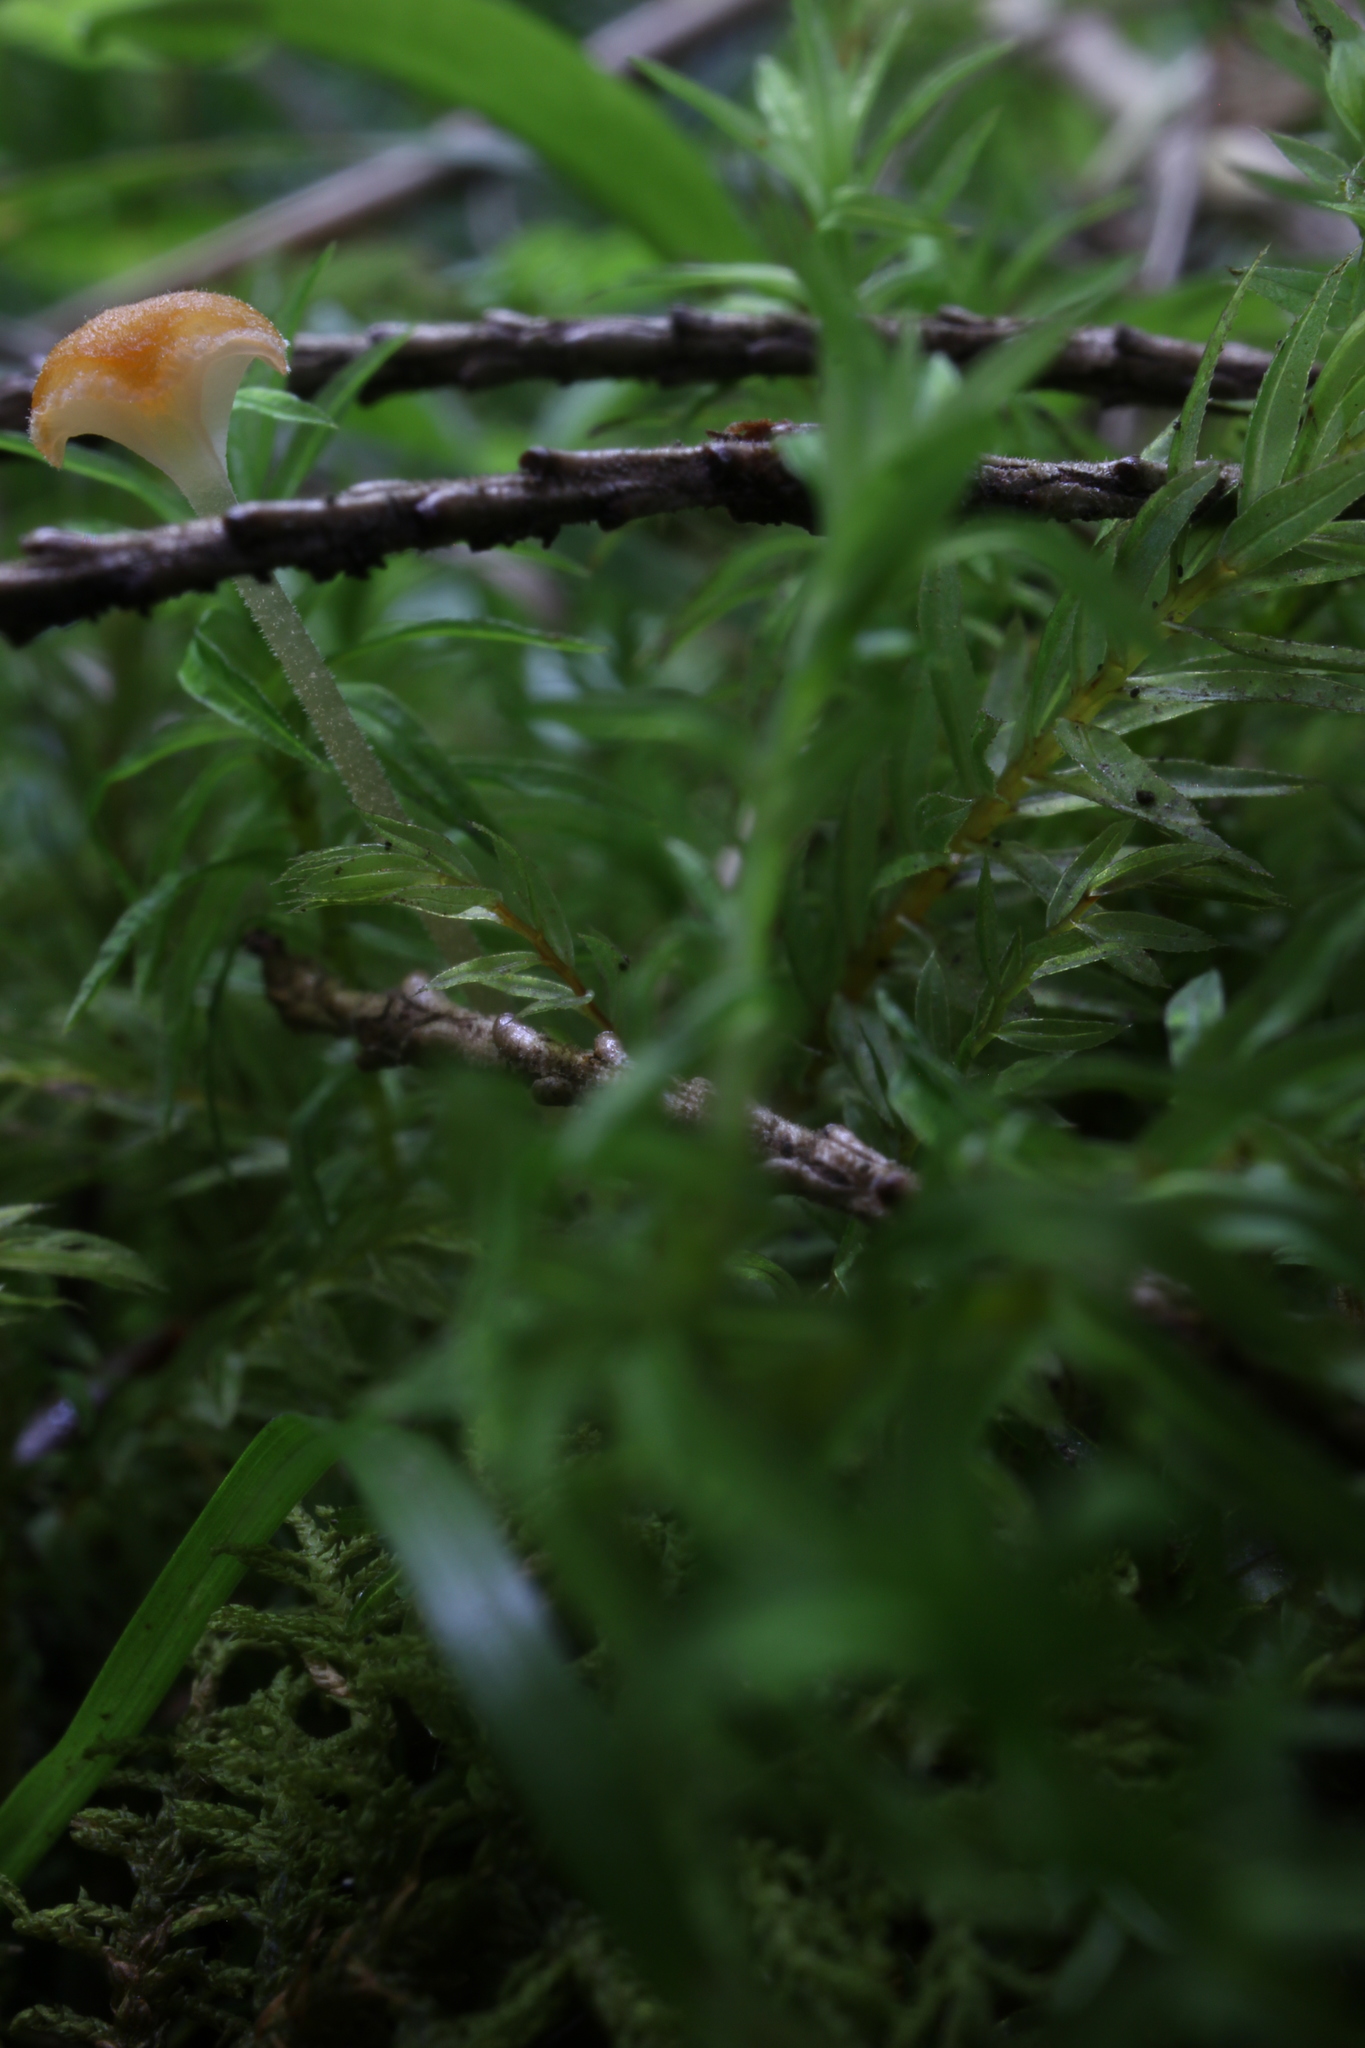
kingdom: Fungi
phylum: Basidiomycota
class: Agaricomycetes
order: Hymenochaetales
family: Rickenellaceae
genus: Rickenella
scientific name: Rickenella fibula
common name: Orange mosscap
